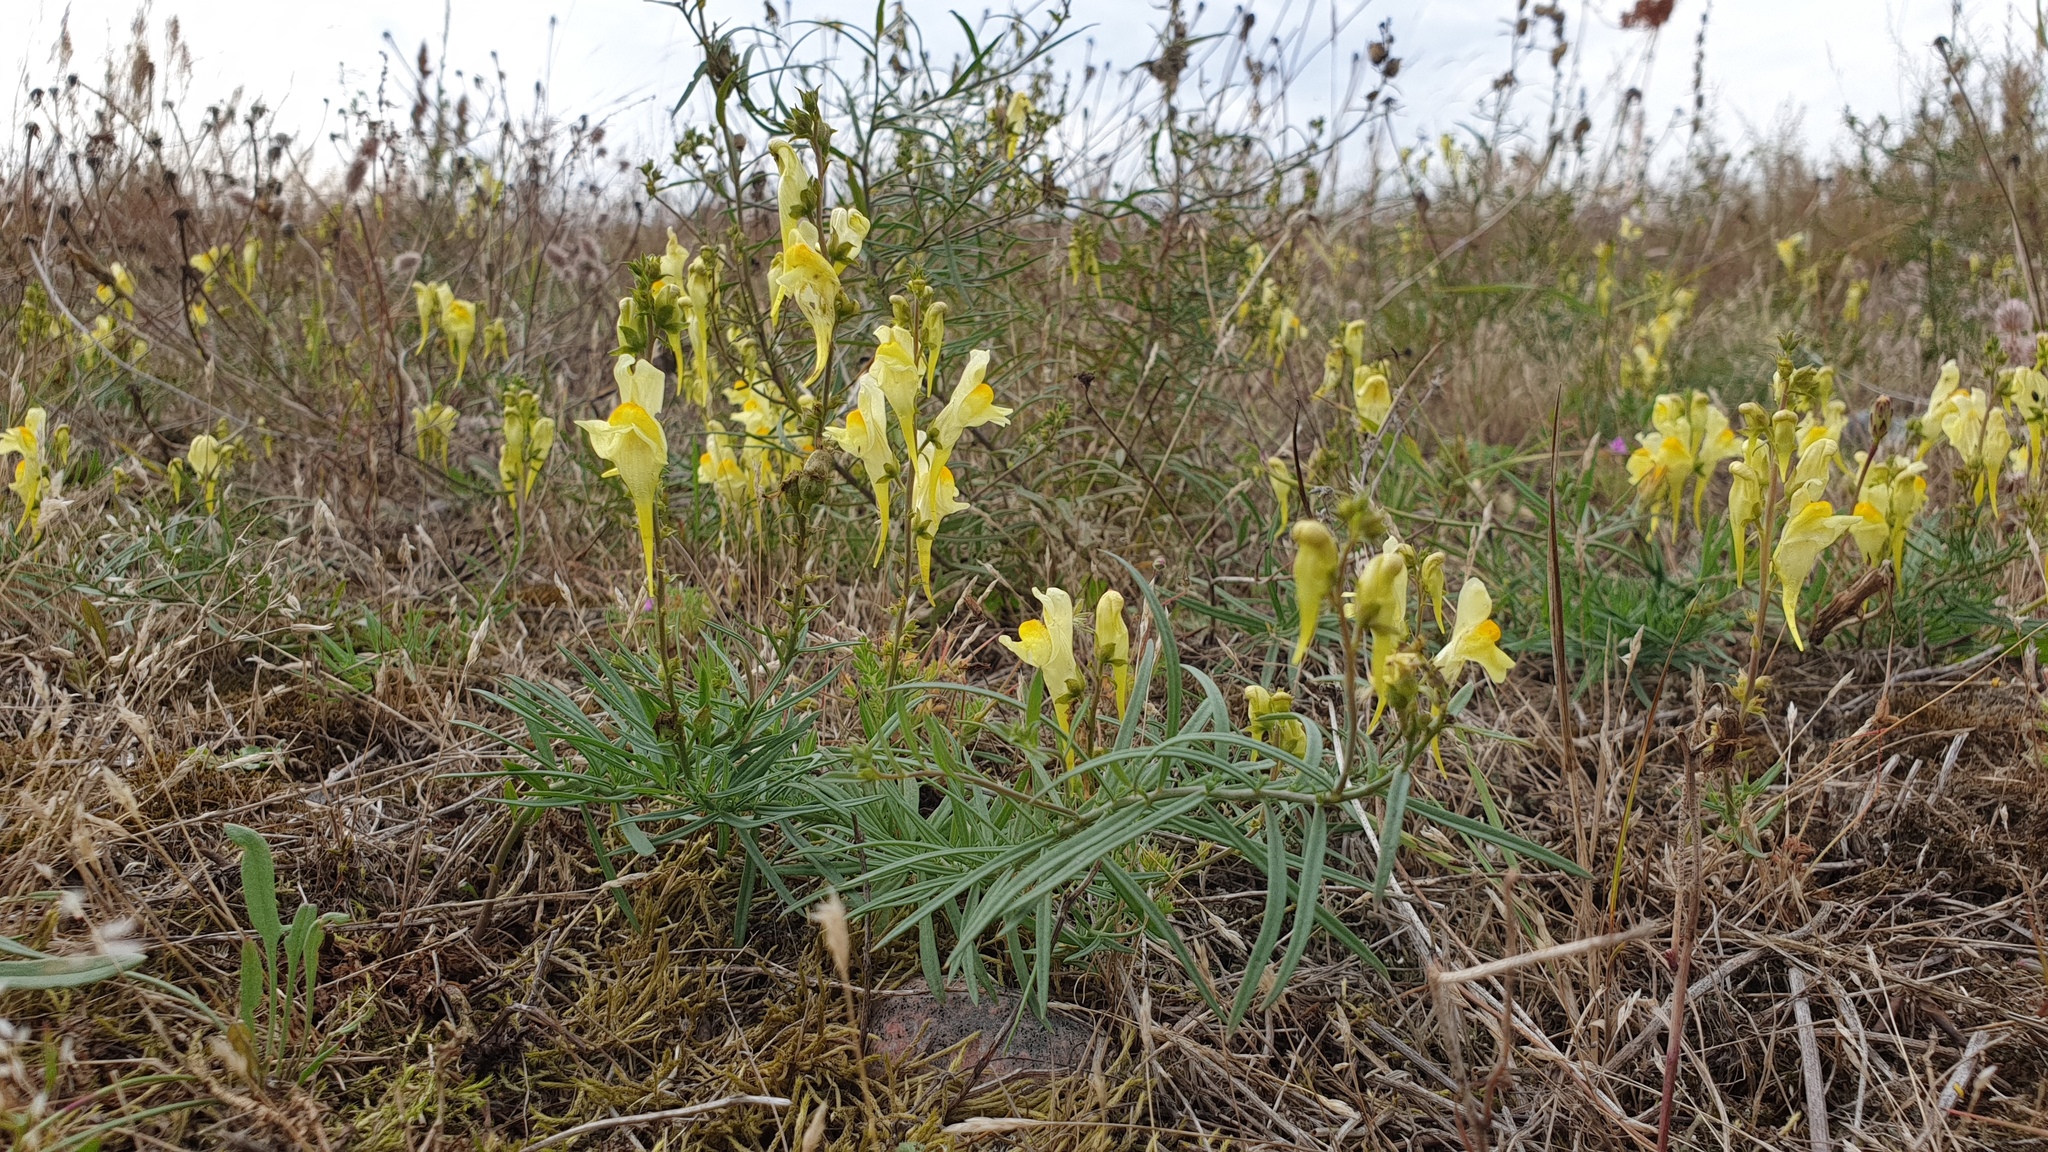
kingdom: Plantae
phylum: Tracheophyta
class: Magnoliopsida
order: Lamiales
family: Plantaginaceae
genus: Linaria
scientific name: Linaria vulgaris
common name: Butter and eggs
